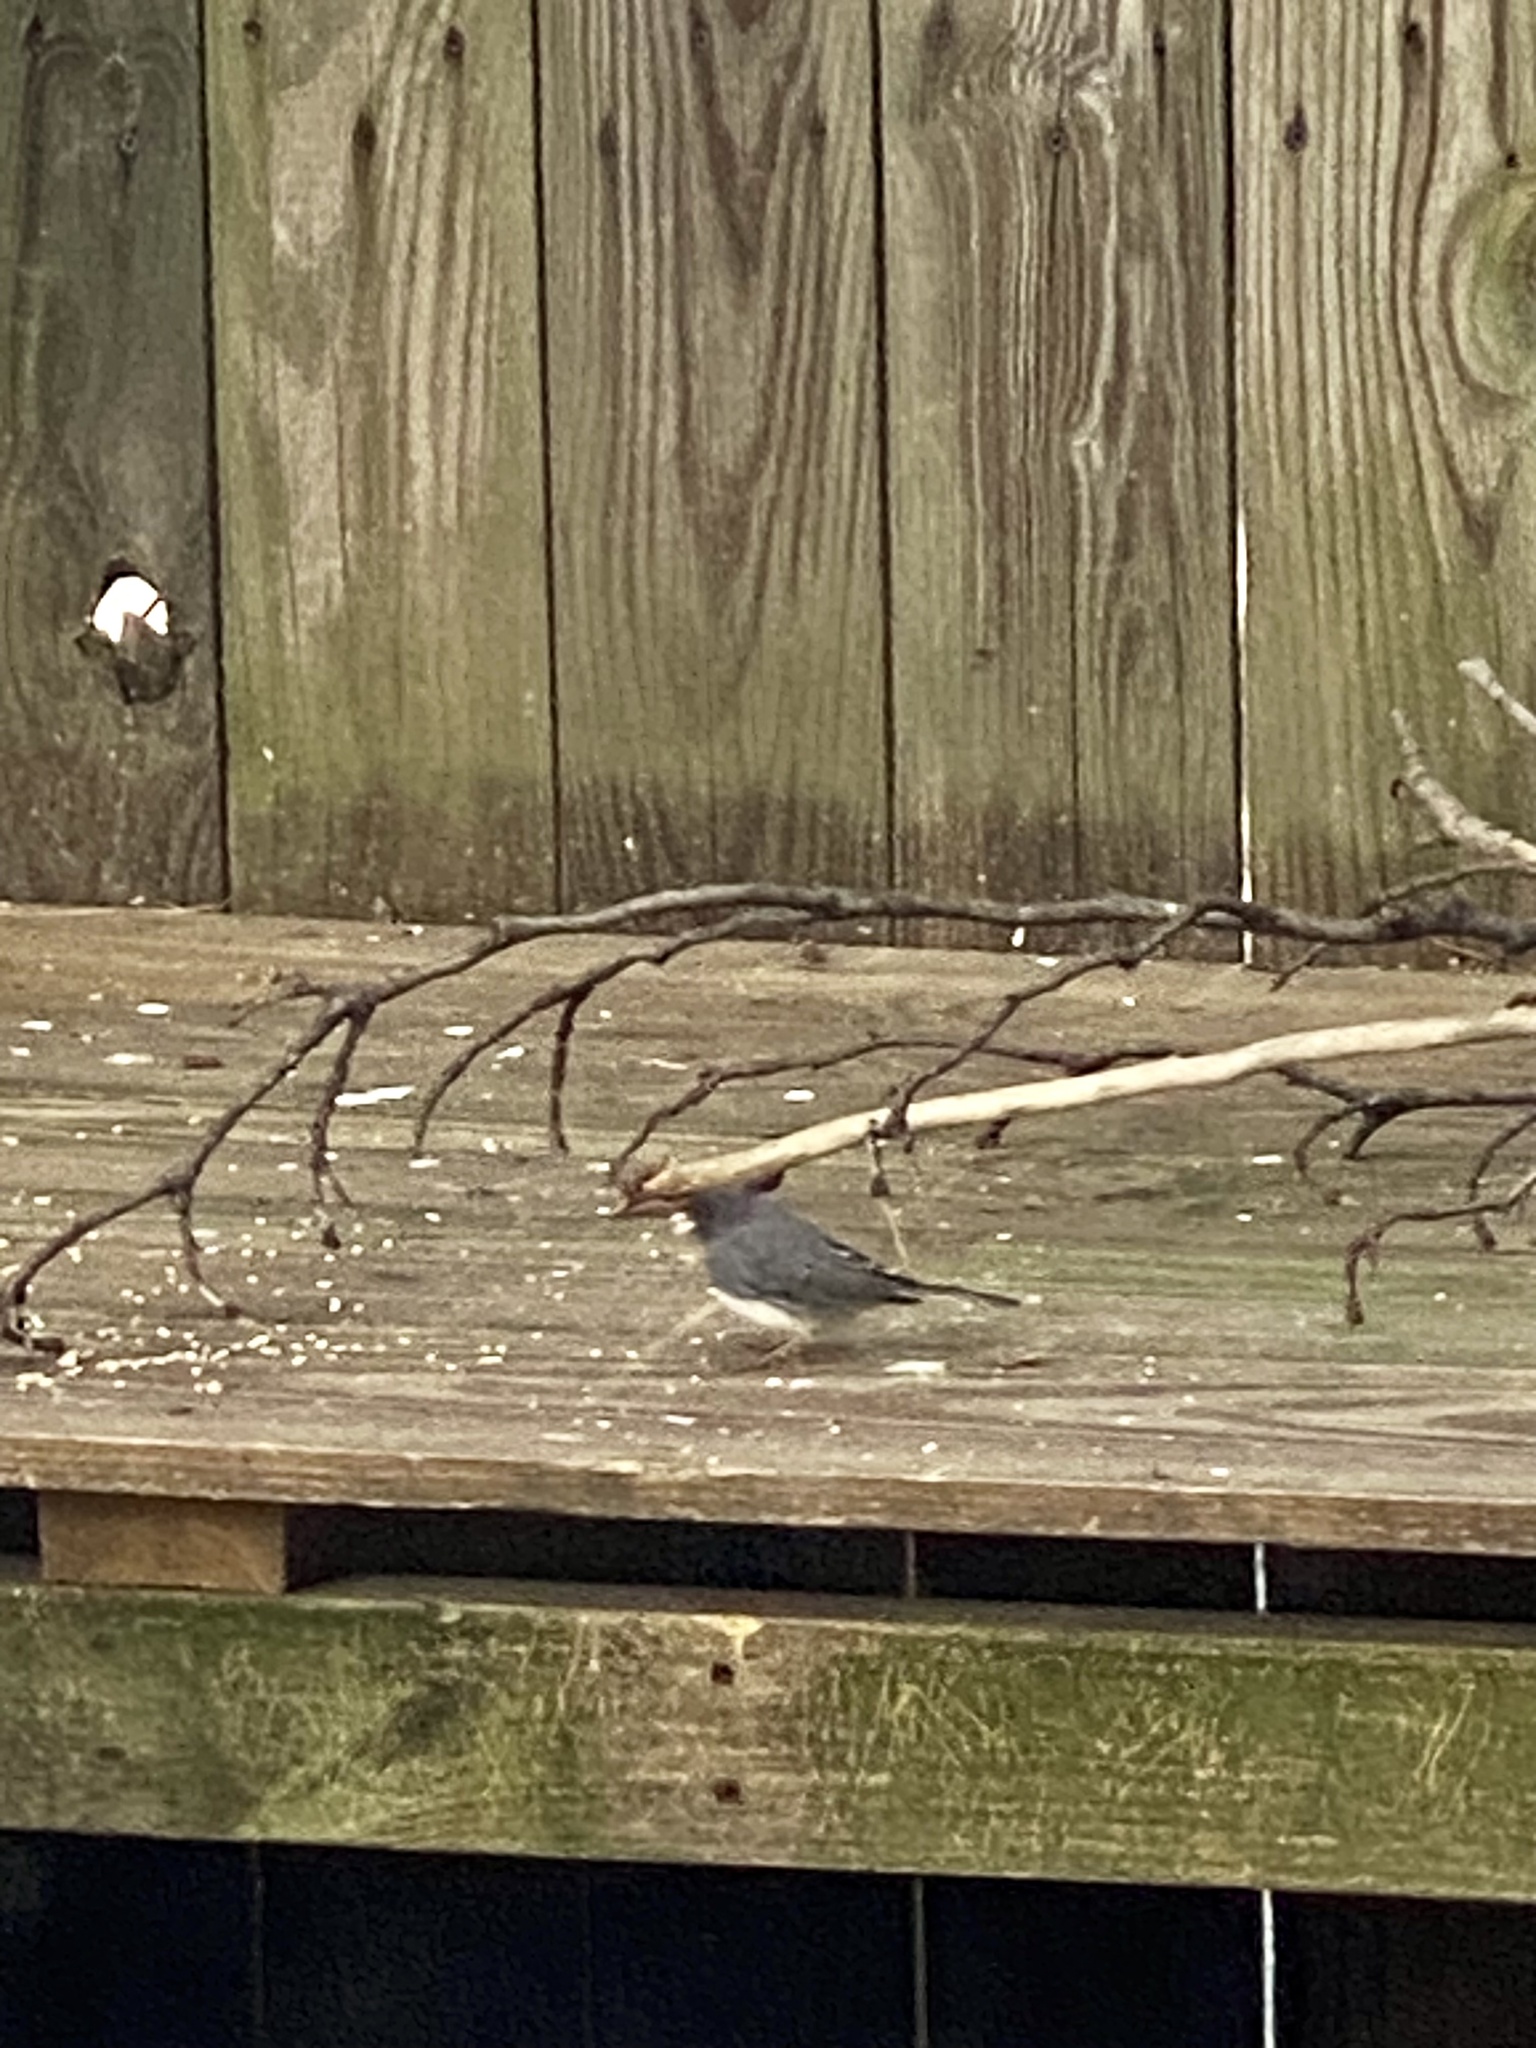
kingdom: Animalia
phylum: Chordata
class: Aves
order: Passeriformes
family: Passerellidae
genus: Junco
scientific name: Junco hyemalis
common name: Dark-eyed junco
